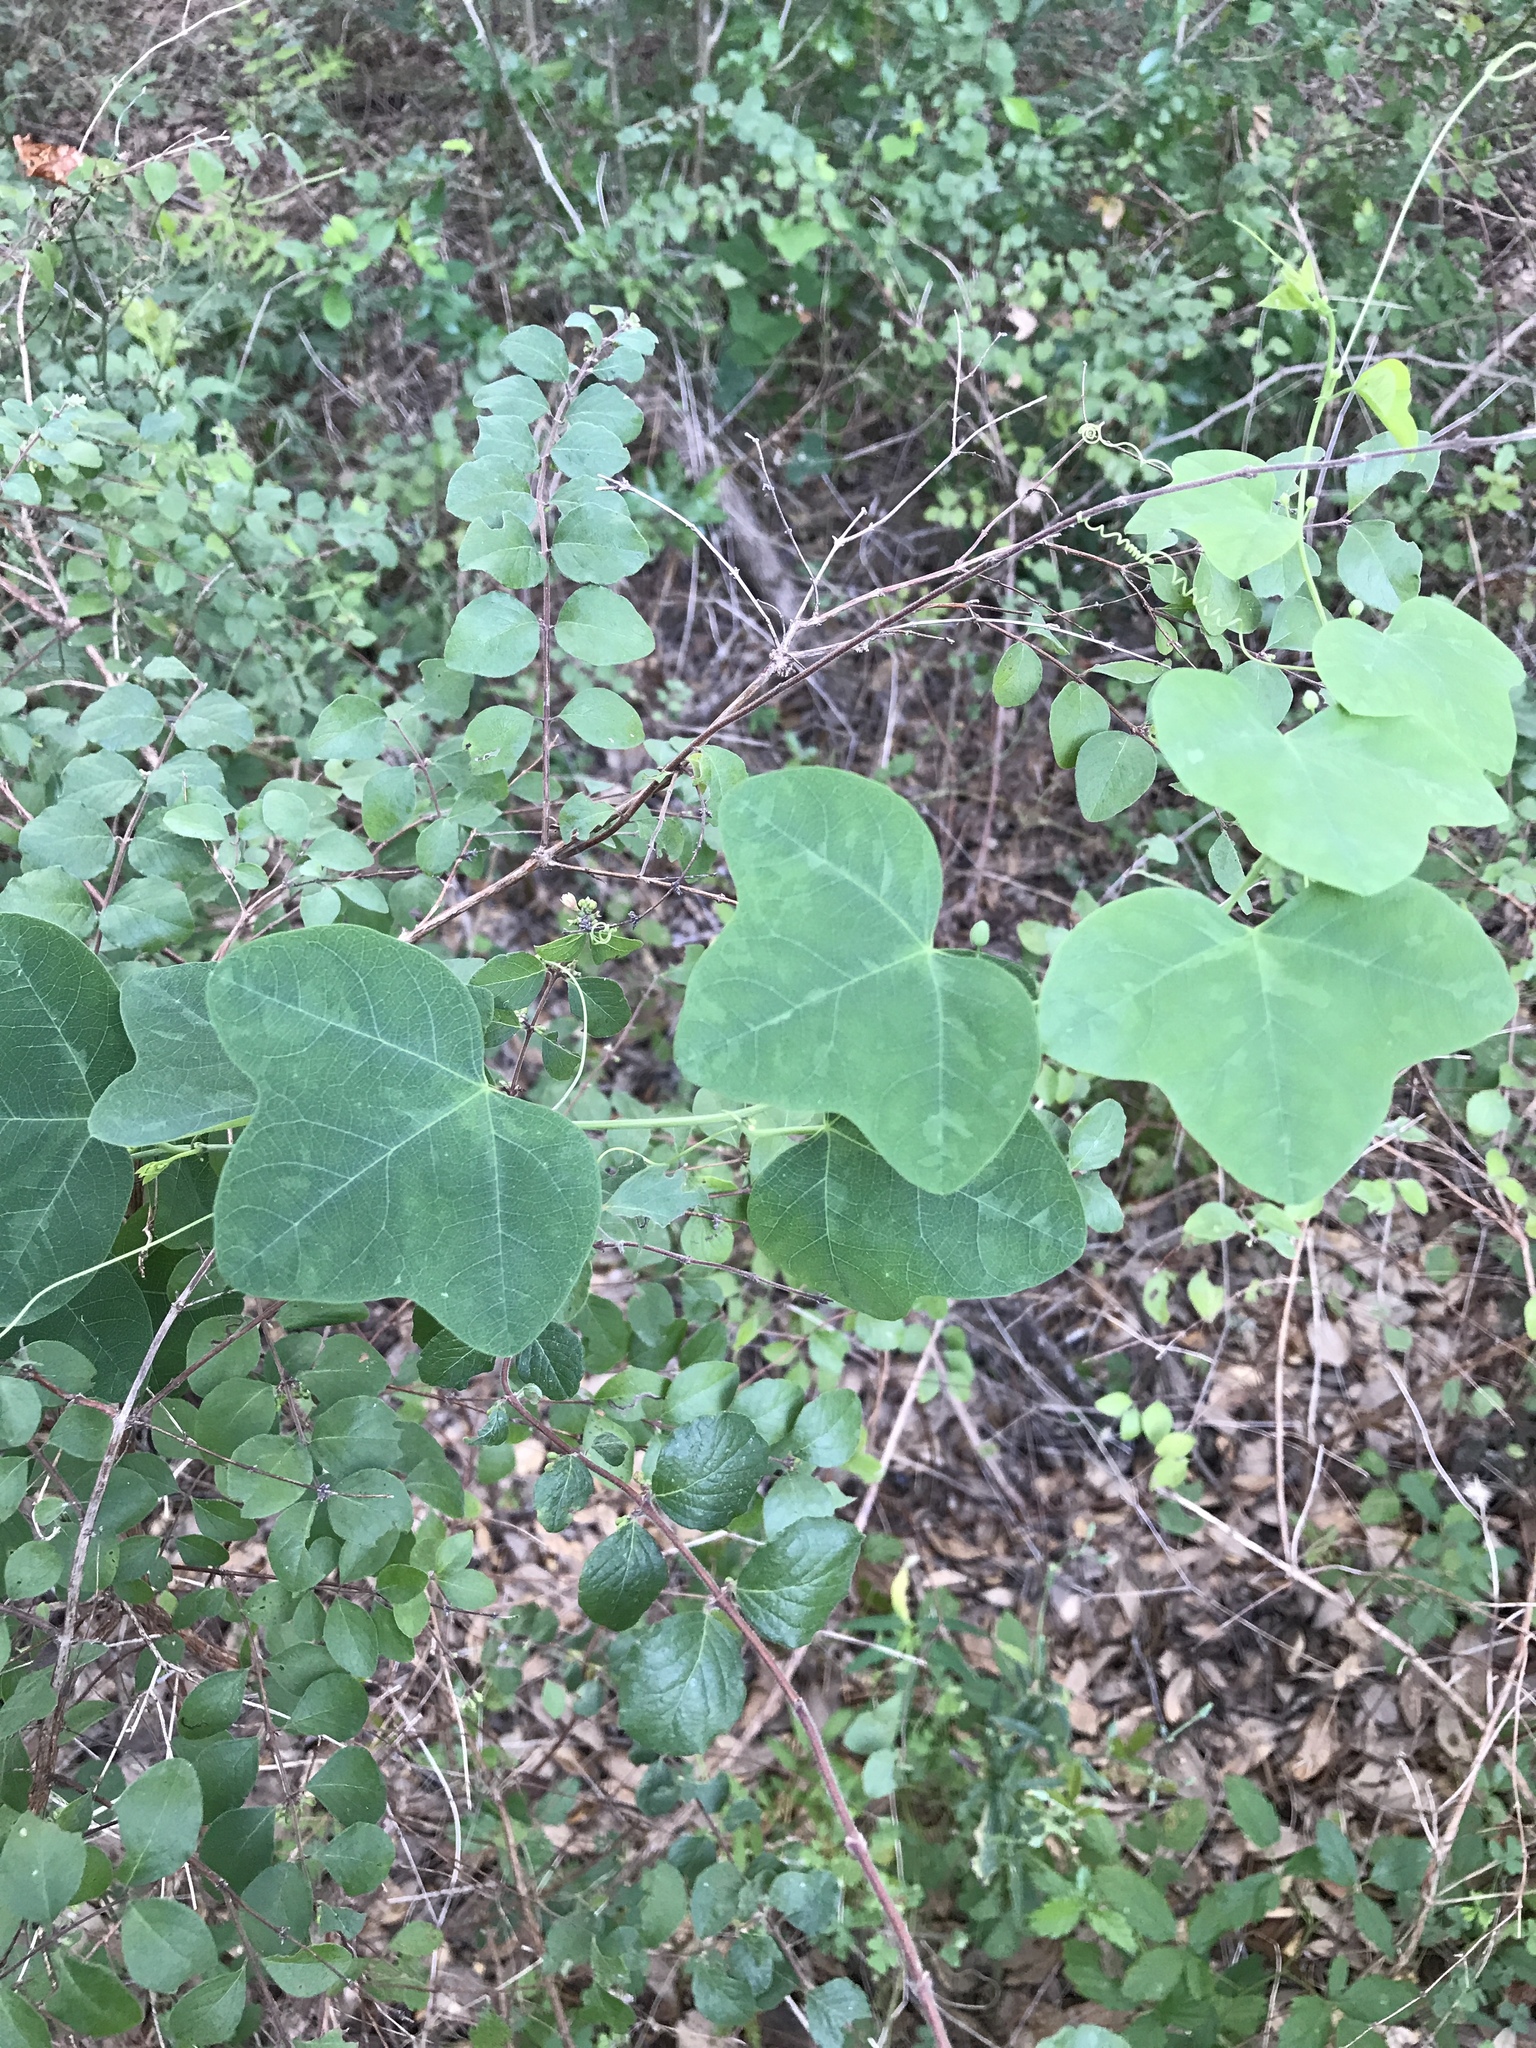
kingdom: Plantae
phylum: Tracheophyta
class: Magnoliopsida
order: Malpighiales
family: Passifloraceae
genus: Passiflora
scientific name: Passiflora lutea
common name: Yellow passionflower
